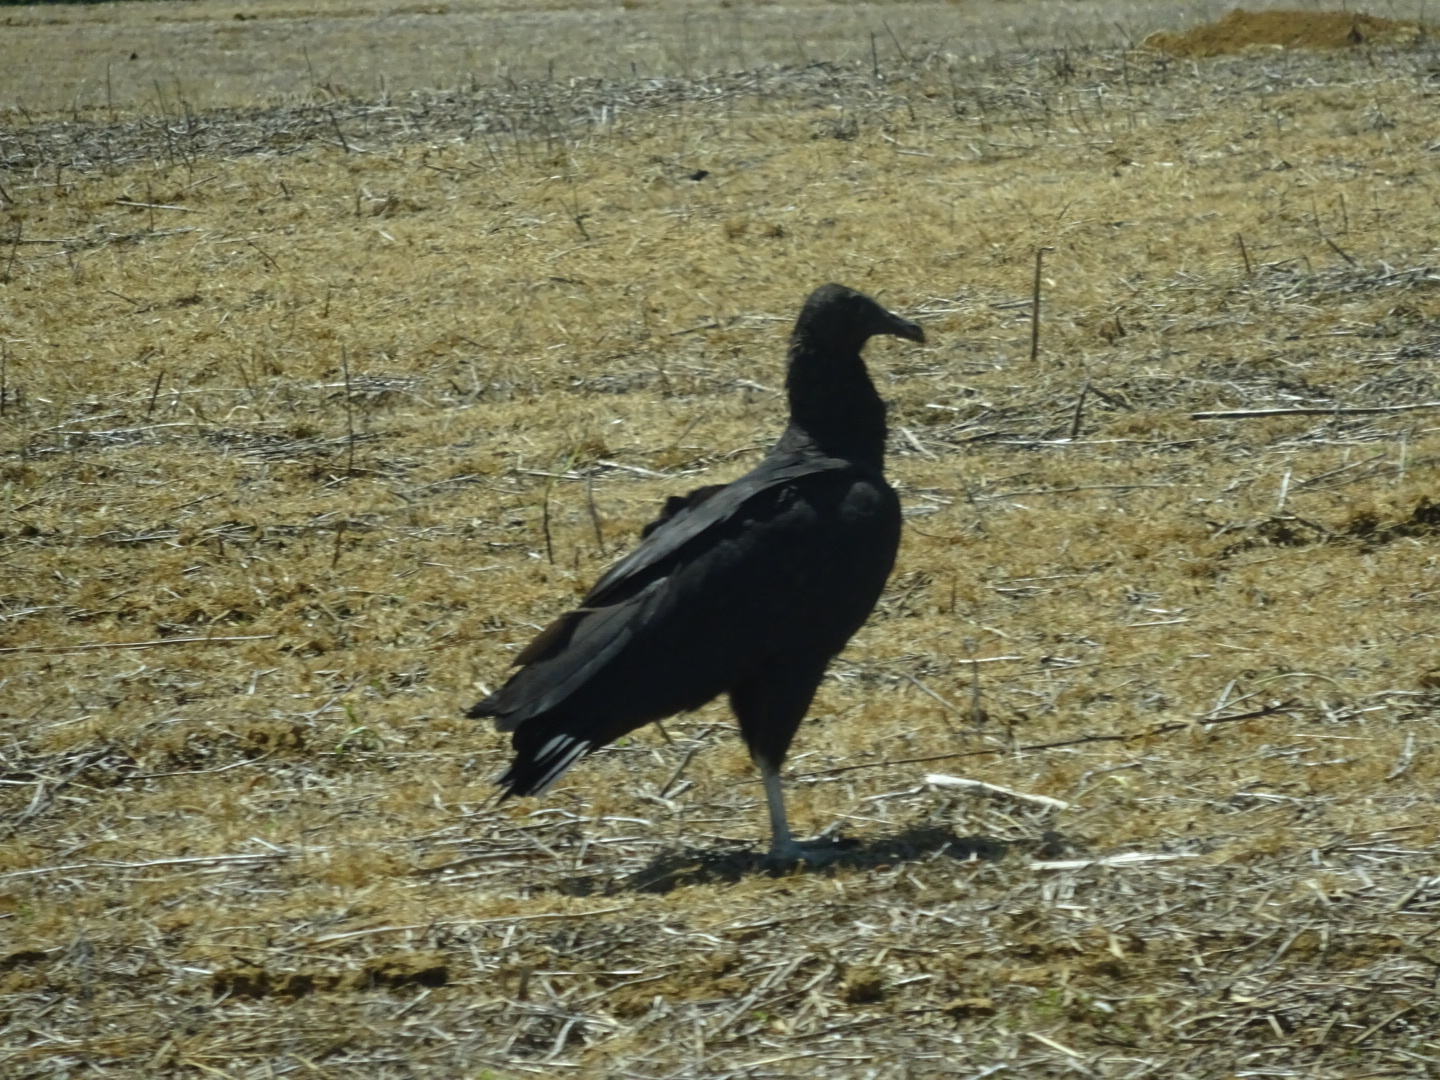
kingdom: Animalia
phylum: Chordata
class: Aves
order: Accipitriformes
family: Cathartidae
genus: Coragyps
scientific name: Coragyps atratus
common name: Black vulture
